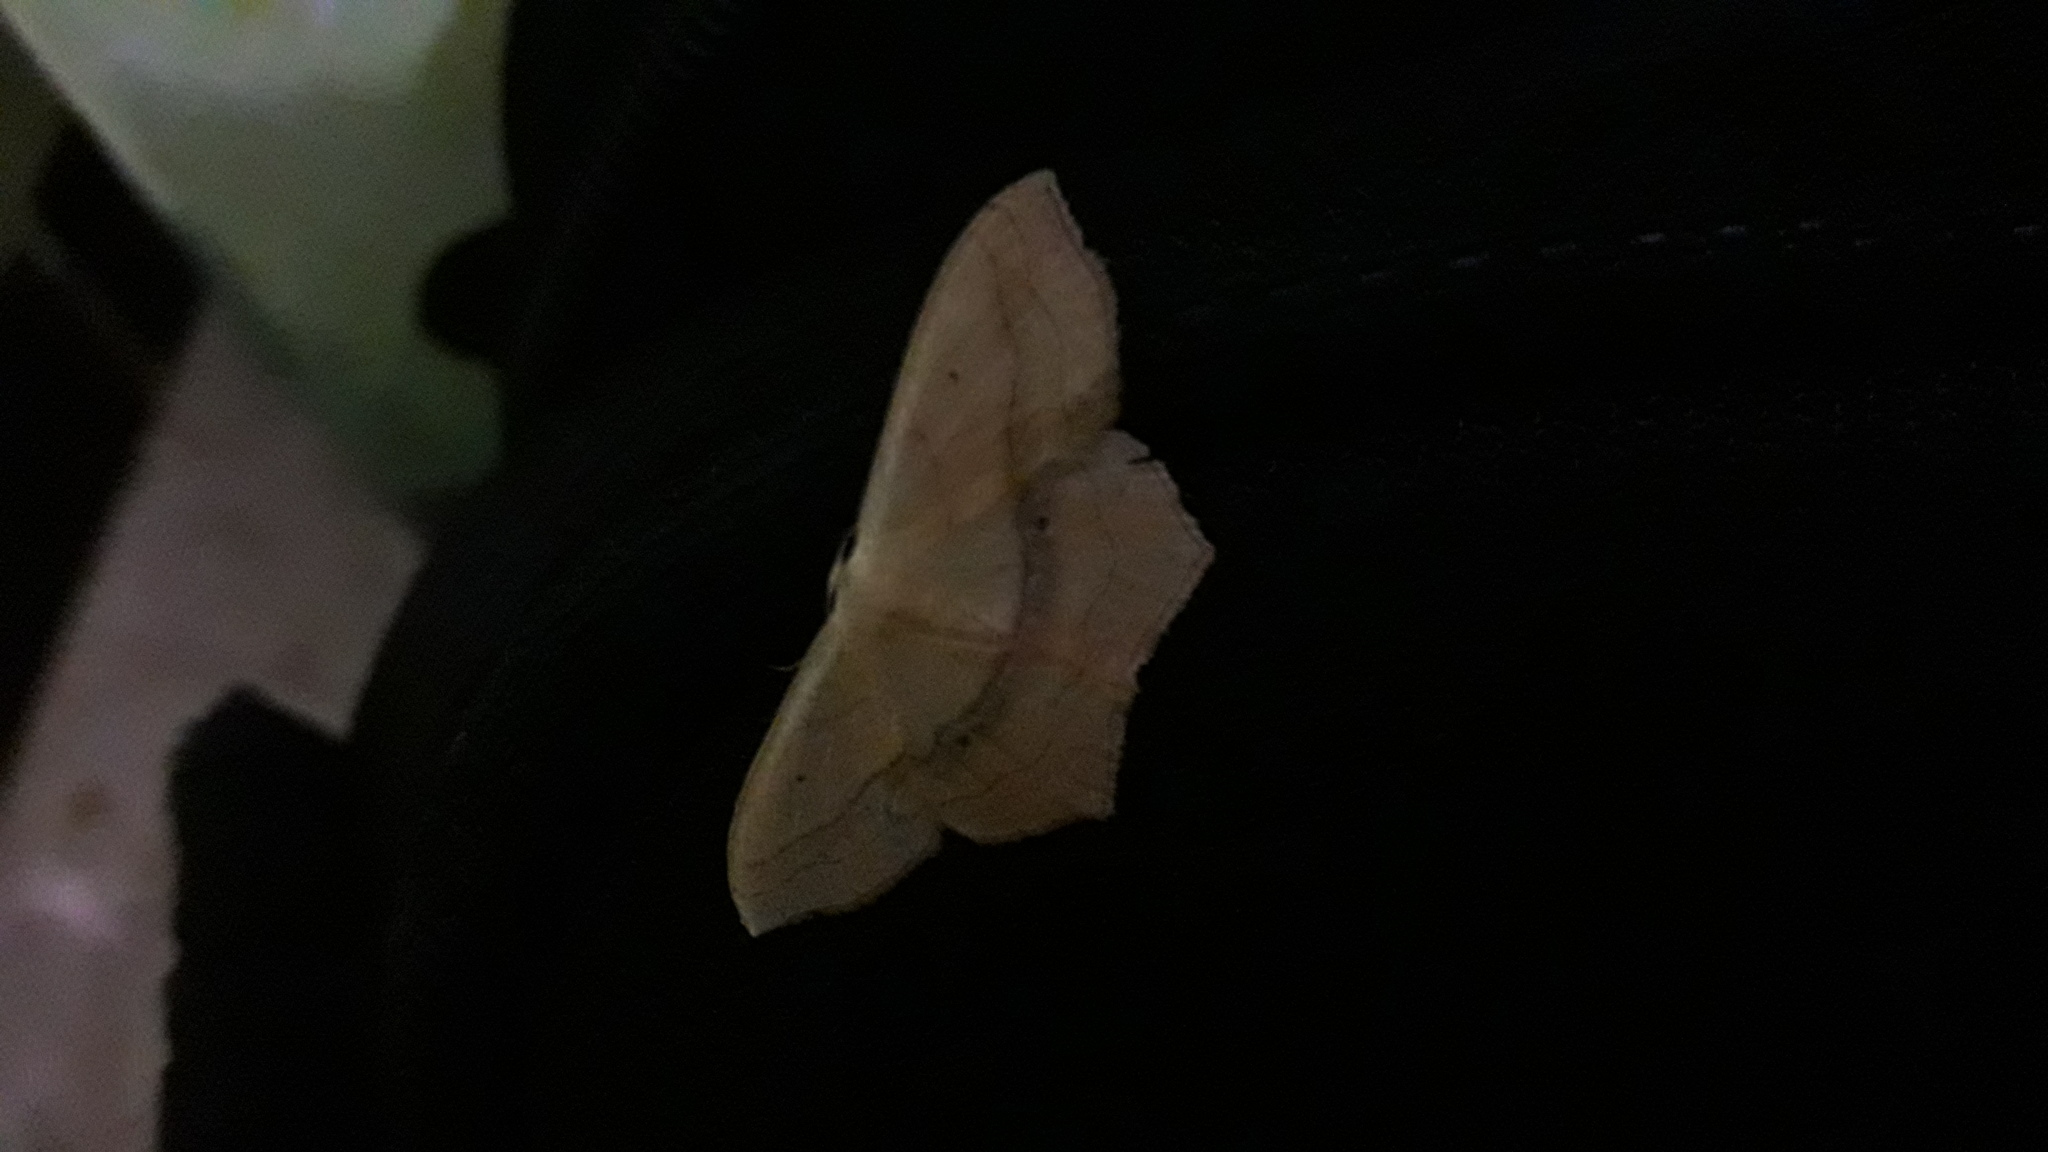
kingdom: Animalia
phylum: Arthropoda
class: Insecta
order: Lepidoptera
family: Geometridae
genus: Scopula
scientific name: Scopula imitaria
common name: Small blood-vein
